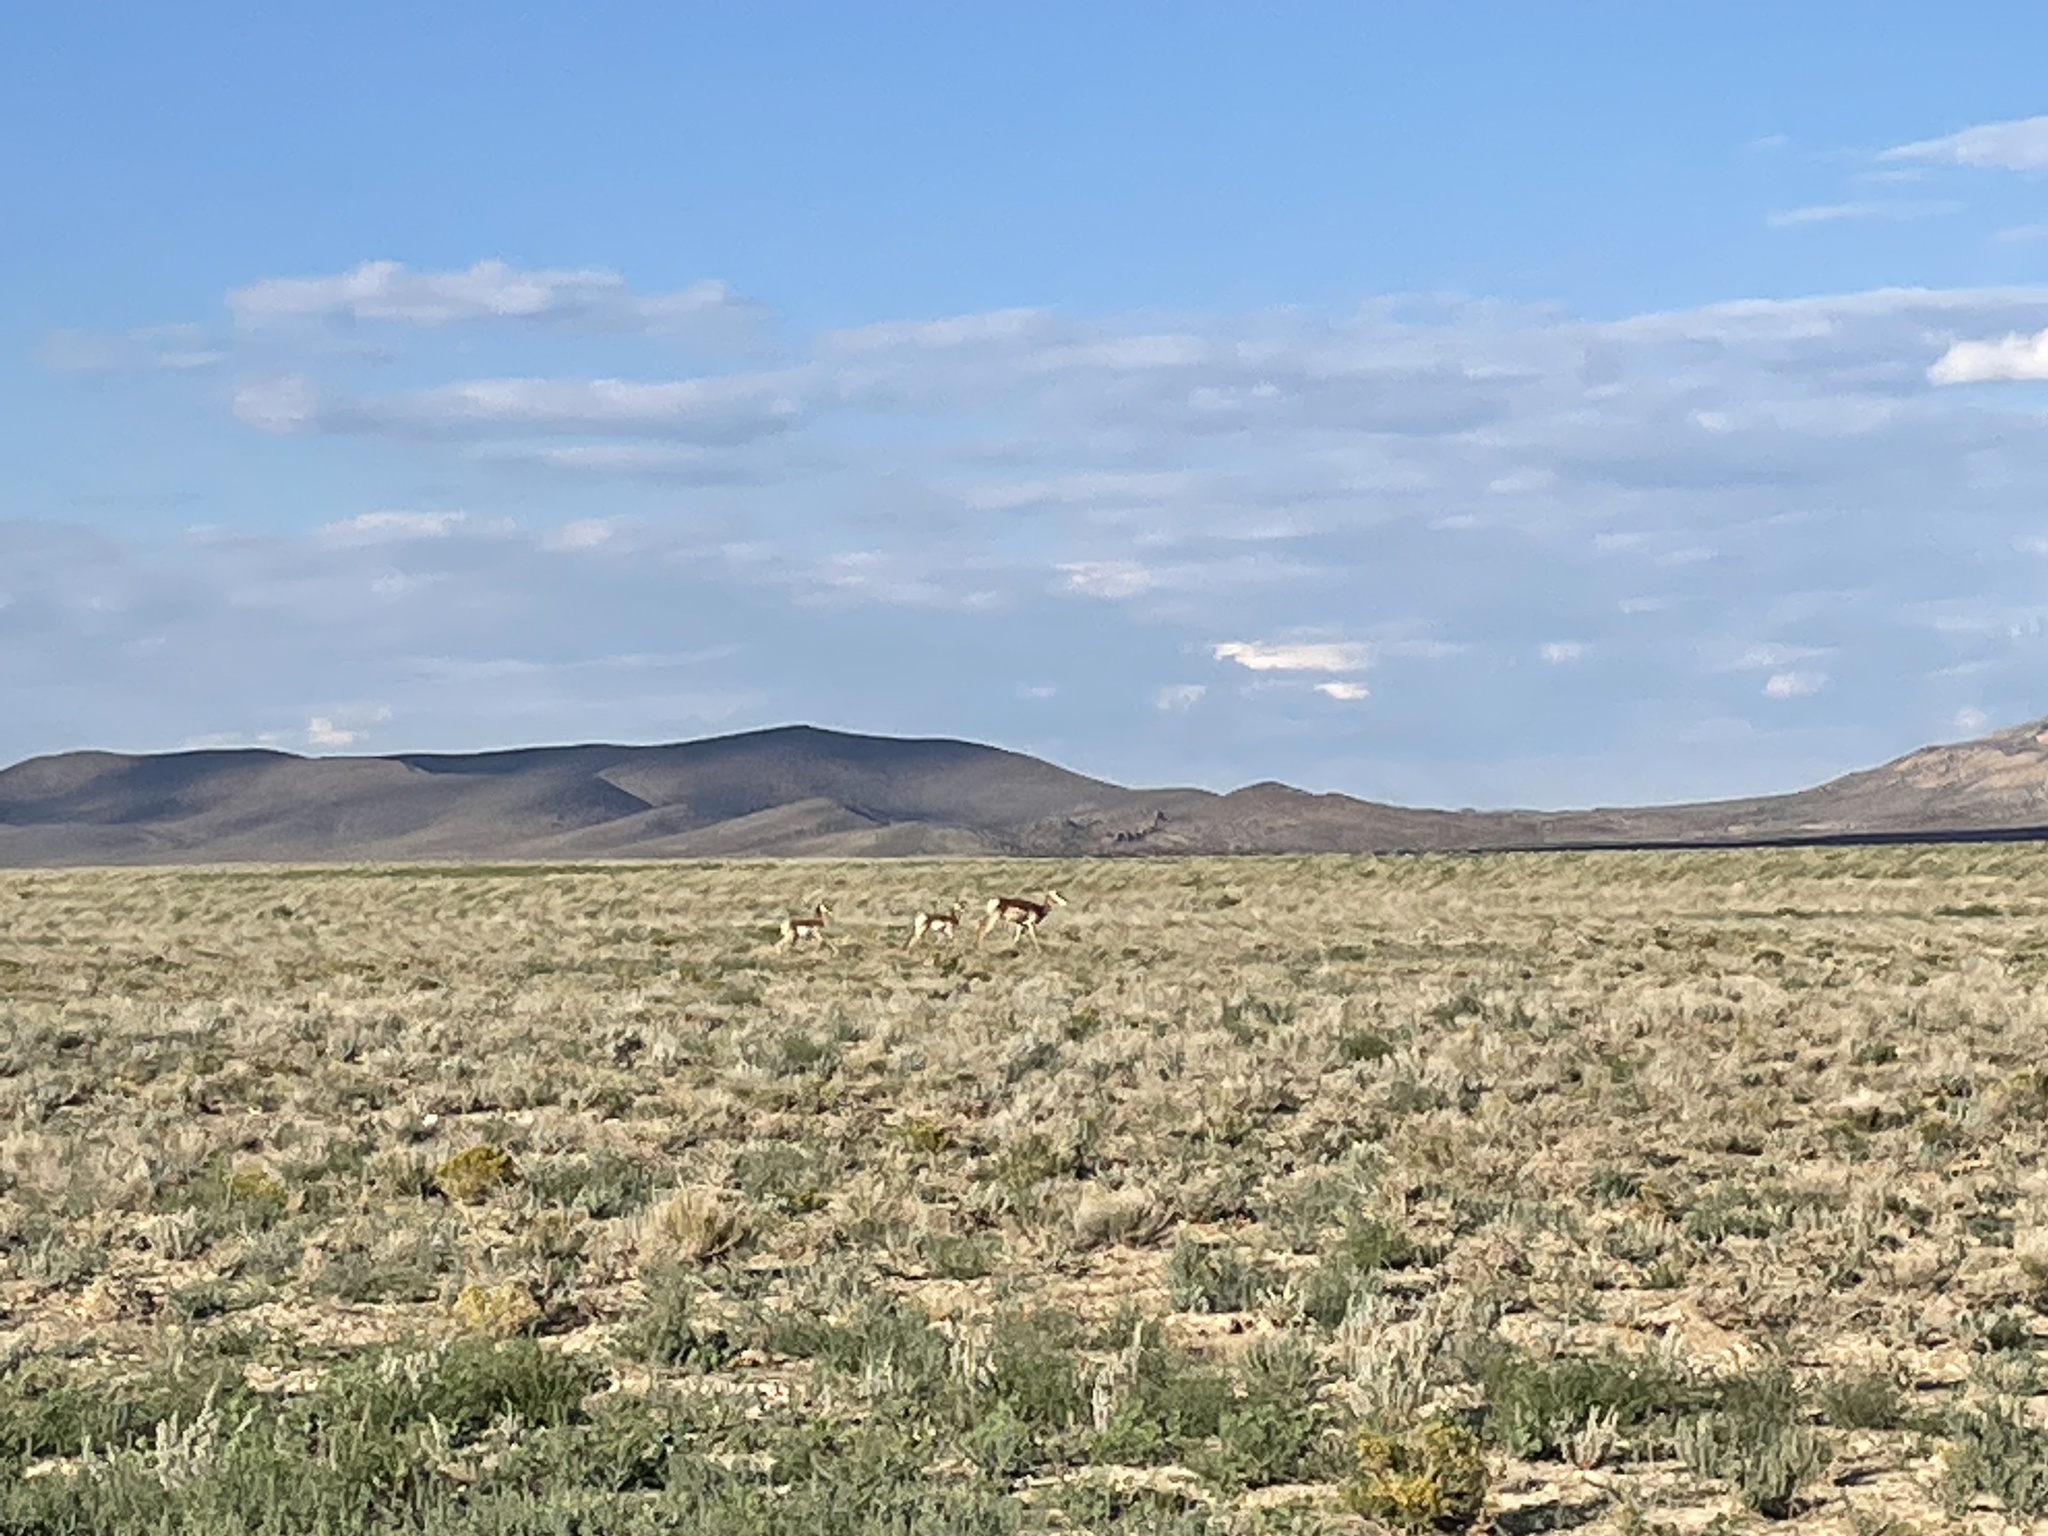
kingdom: Animalia
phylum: Chordata
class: Mammalia
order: Artiodactyla
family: Antilocapridae
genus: Antilocapra
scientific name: Antilocapra americana
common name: Pronghorn
